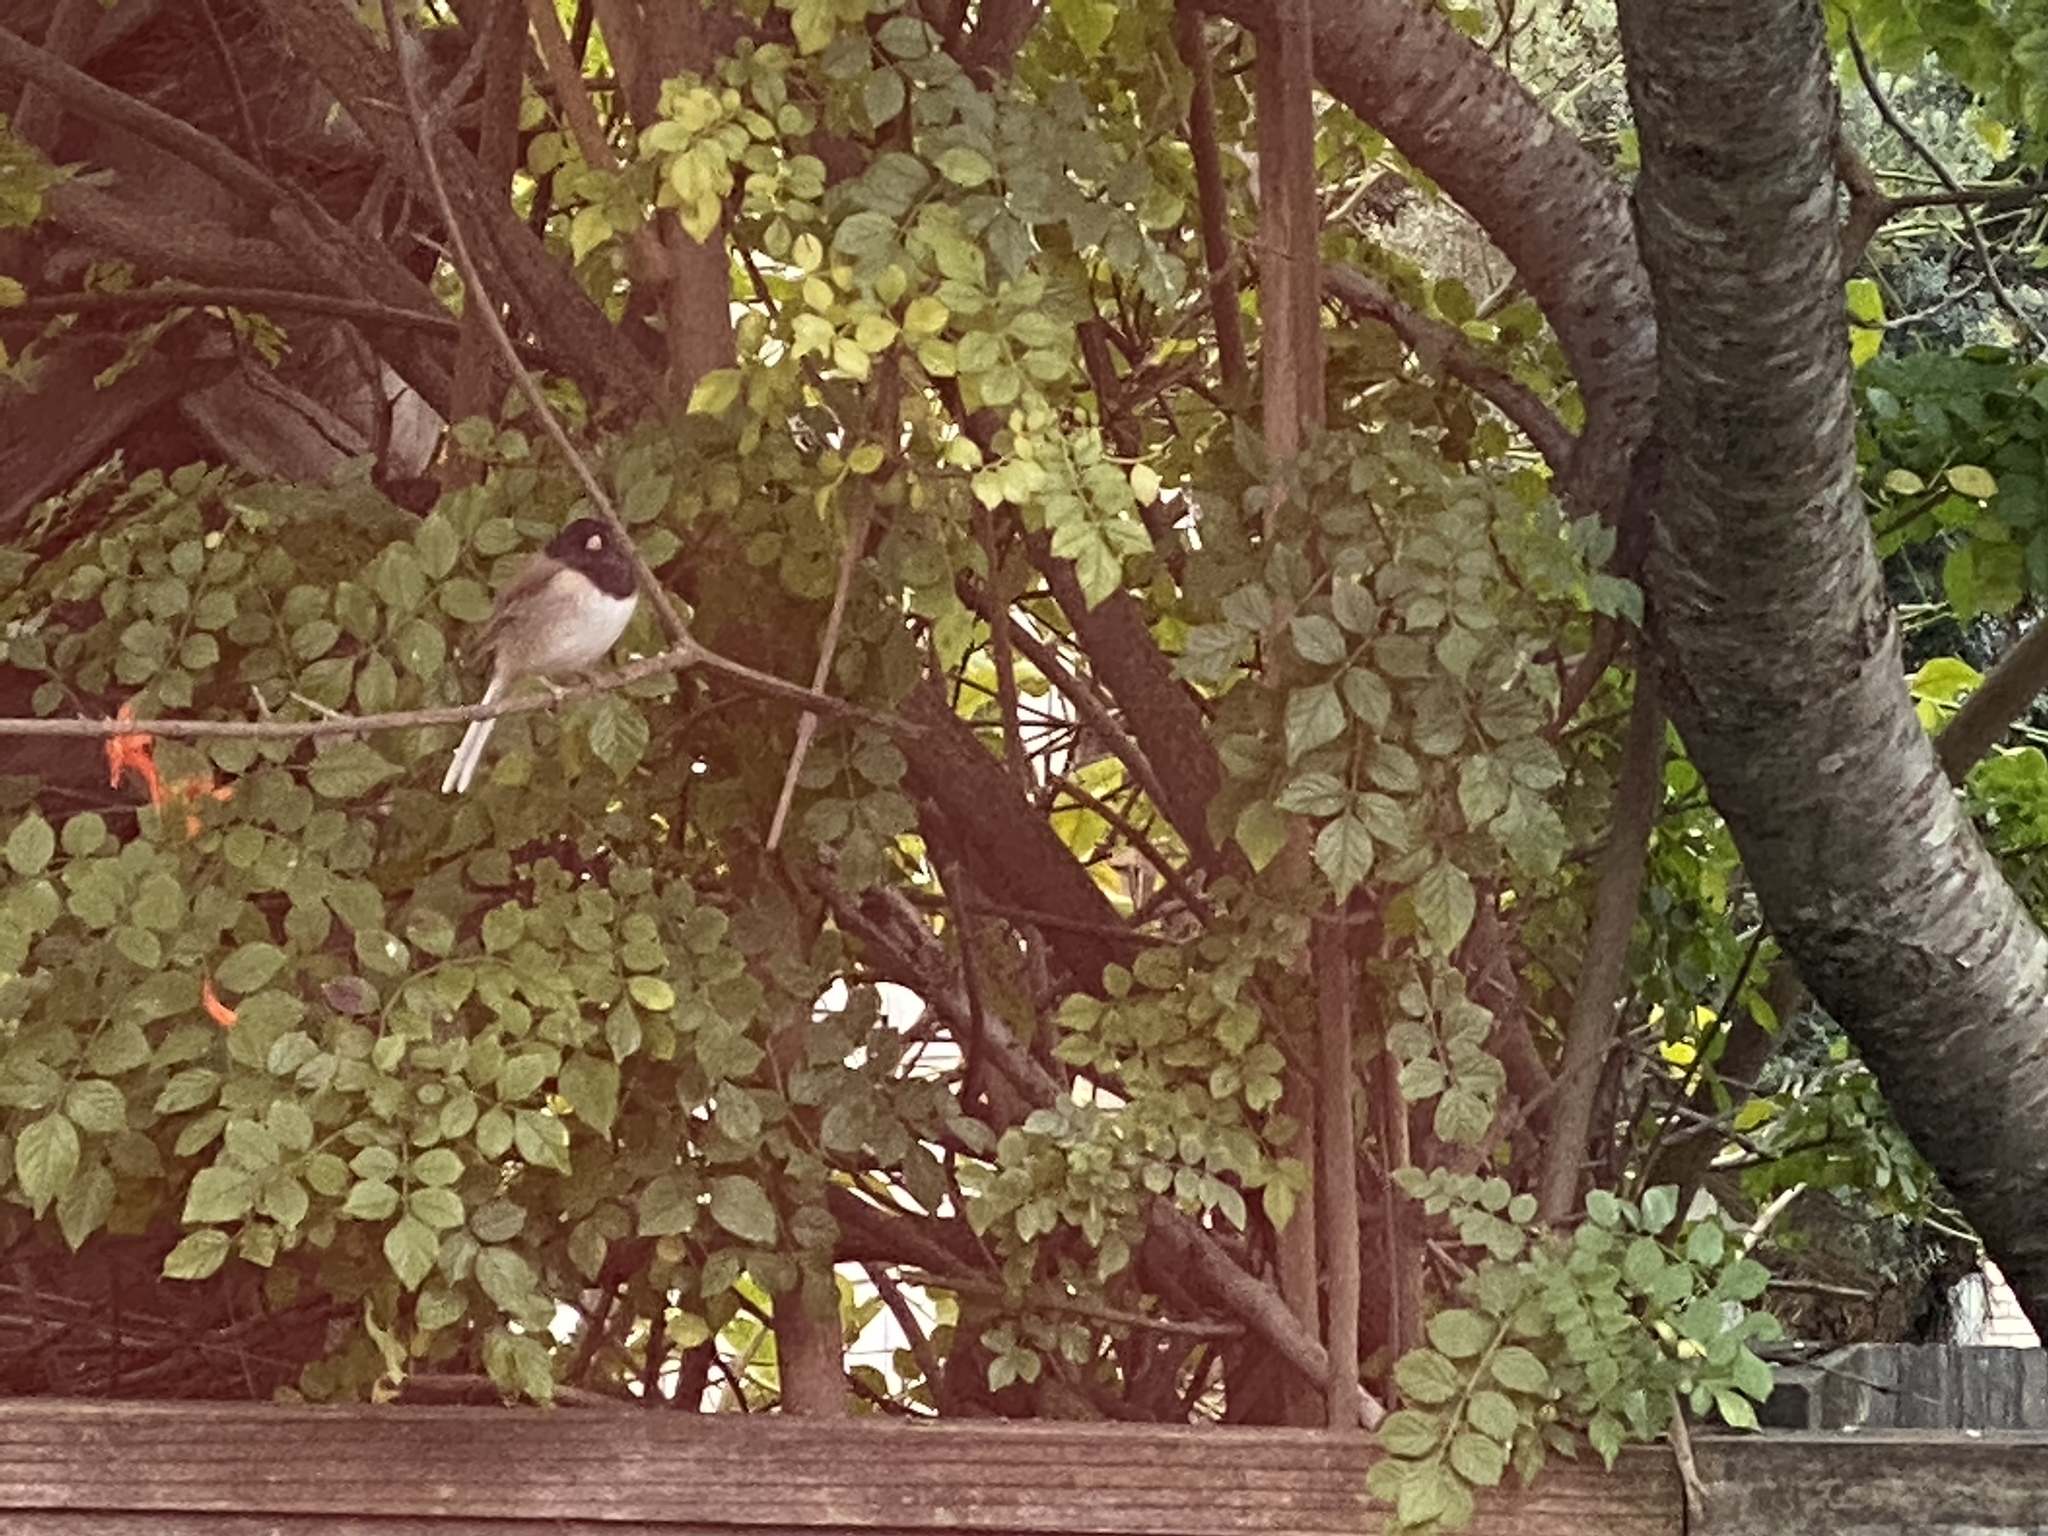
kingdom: Animalia
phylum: Chordata
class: Aves
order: Passeriformes
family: Passerellidae
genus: Junco
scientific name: Junco hyemalis
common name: Dark-eyed junco
